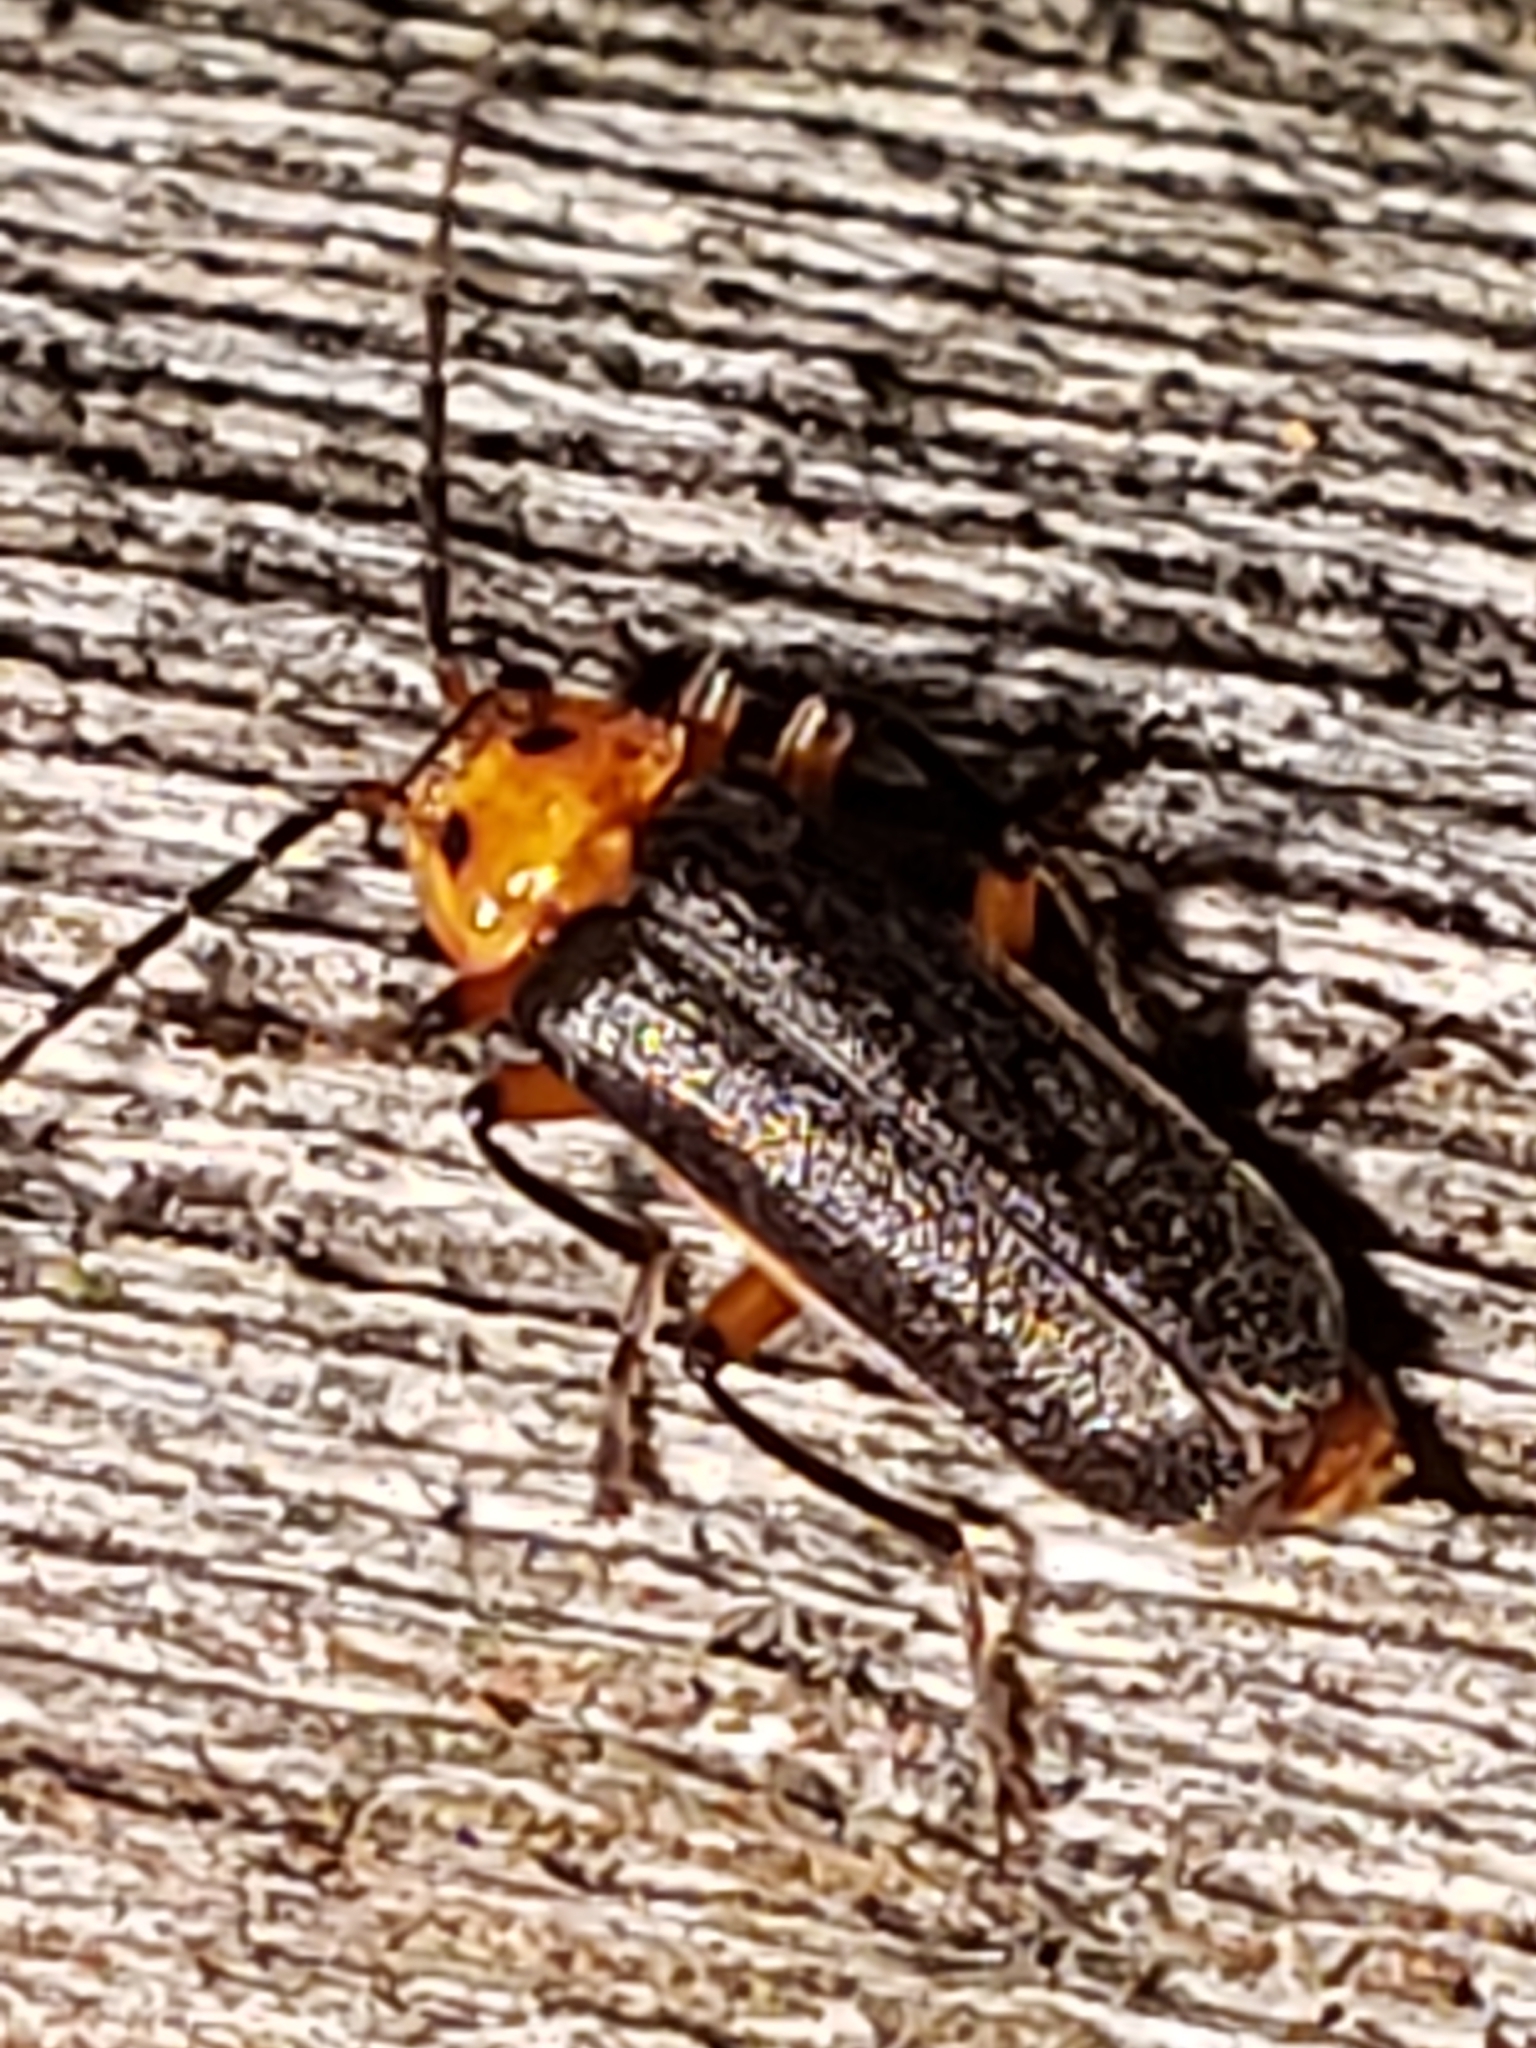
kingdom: Animalia
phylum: Arthropoda
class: Insecta
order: Coleoptera
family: Cantharidae
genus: Atalantycha
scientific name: Atalantycha bilineata
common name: Two-lined leatherwing
